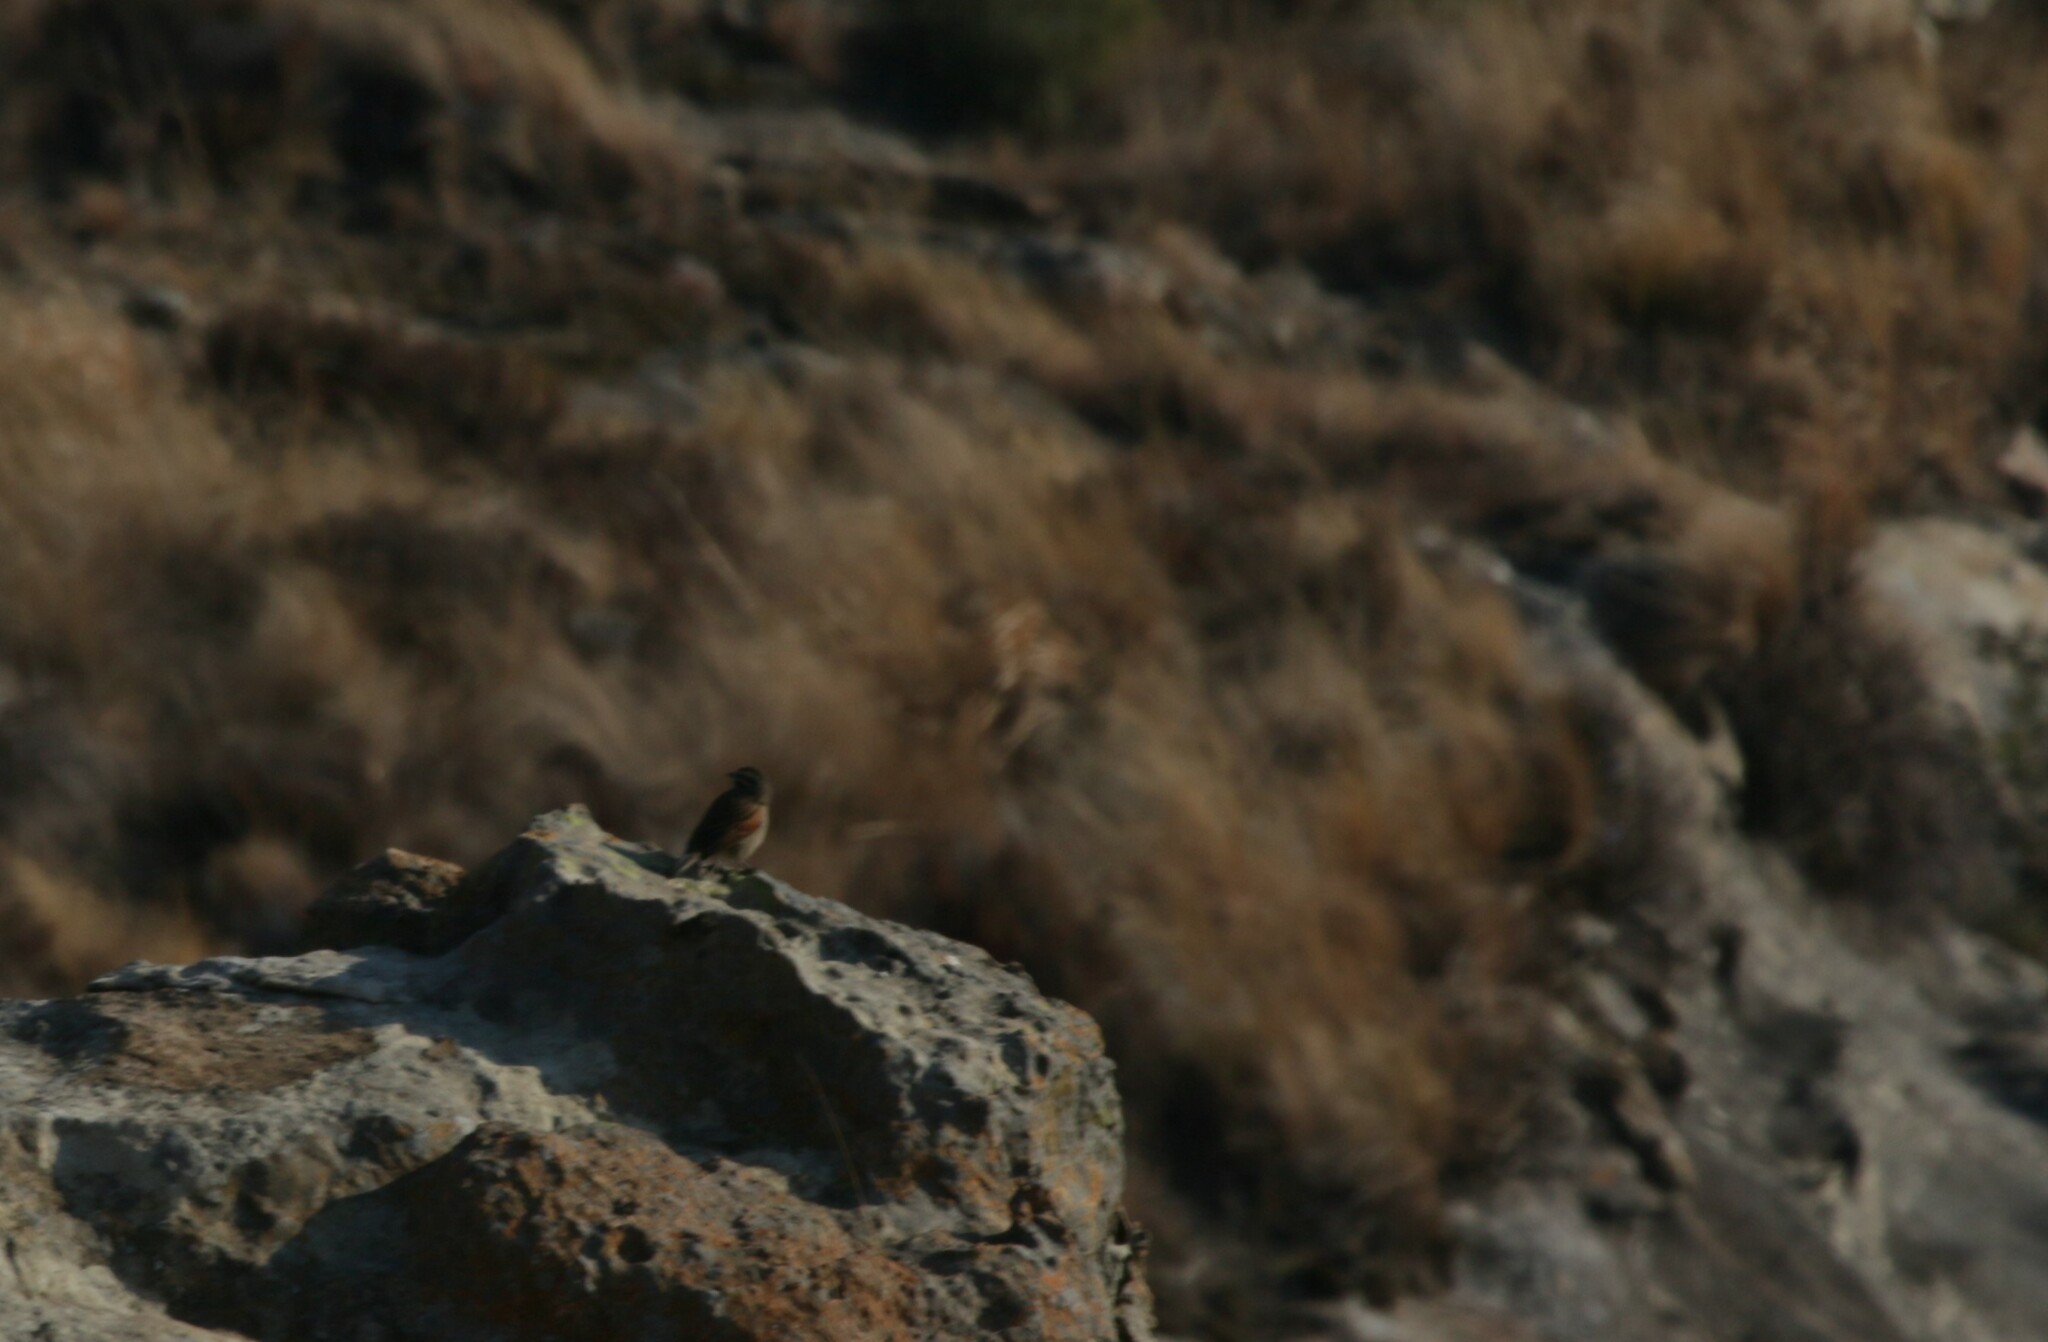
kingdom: Animalia
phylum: Chordata
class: Aves
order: Passeriformes
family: Emberizidae
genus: Emberiza
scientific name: Emberiza capensis
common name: Cape bunting
